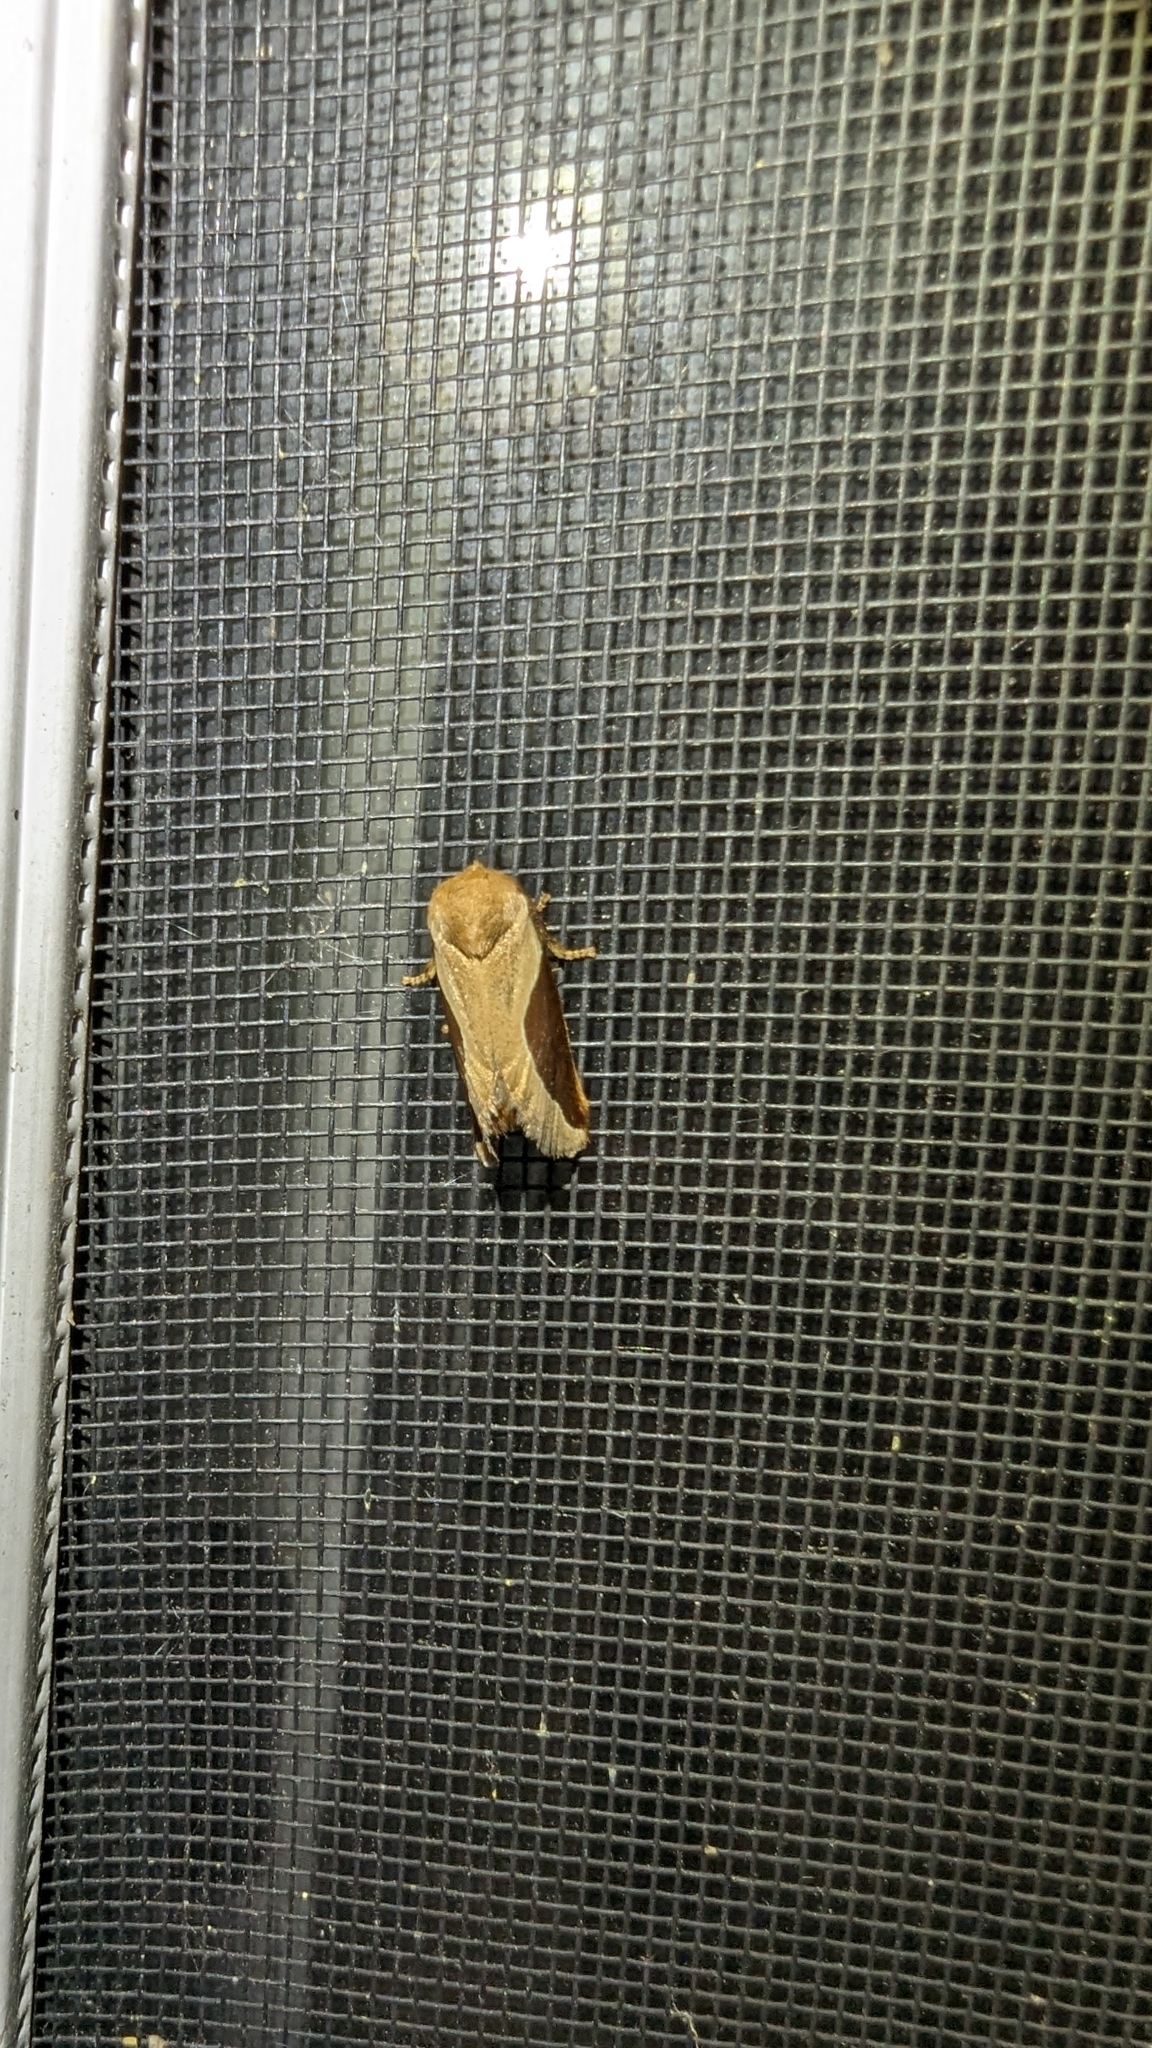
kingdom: Animalia
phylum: Arthropoda
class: Insecta
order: Lepidoptera
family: Limacodidae
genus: Prolimacodes
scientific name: Prolimacodes badia
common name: Skiff moth
